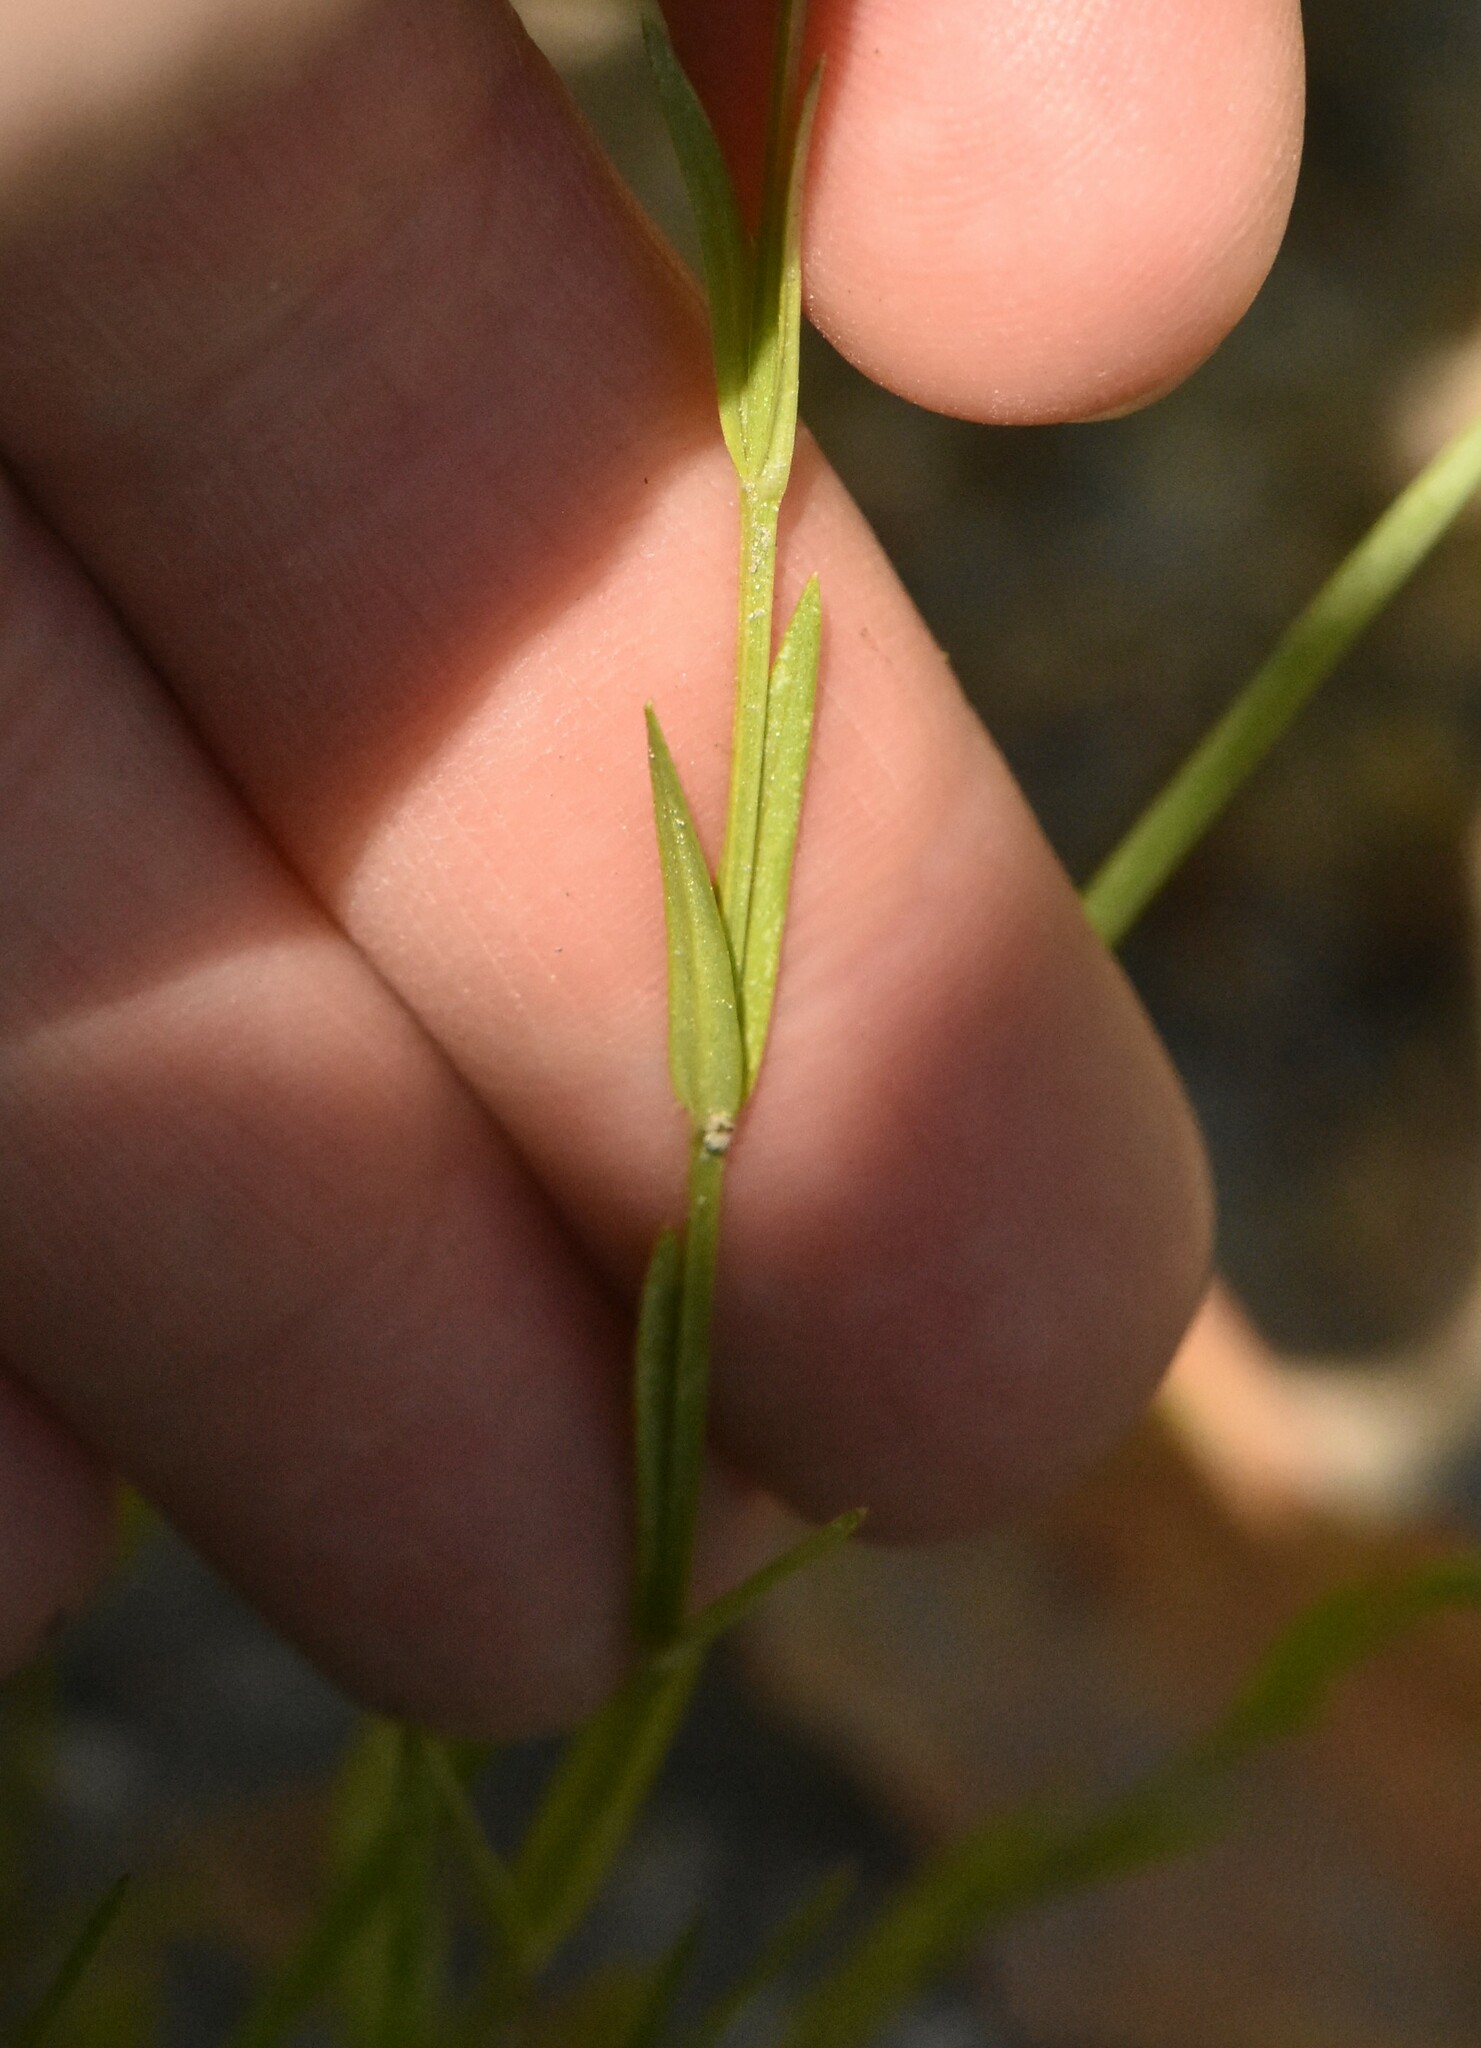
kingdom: Plantae
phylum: Tracheophyta
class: Magnoliopsida
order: Caryophyllales
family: Caryophyllaceae
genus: Stellaria
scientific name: Stellaria graminea
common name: Grass-like starwort
